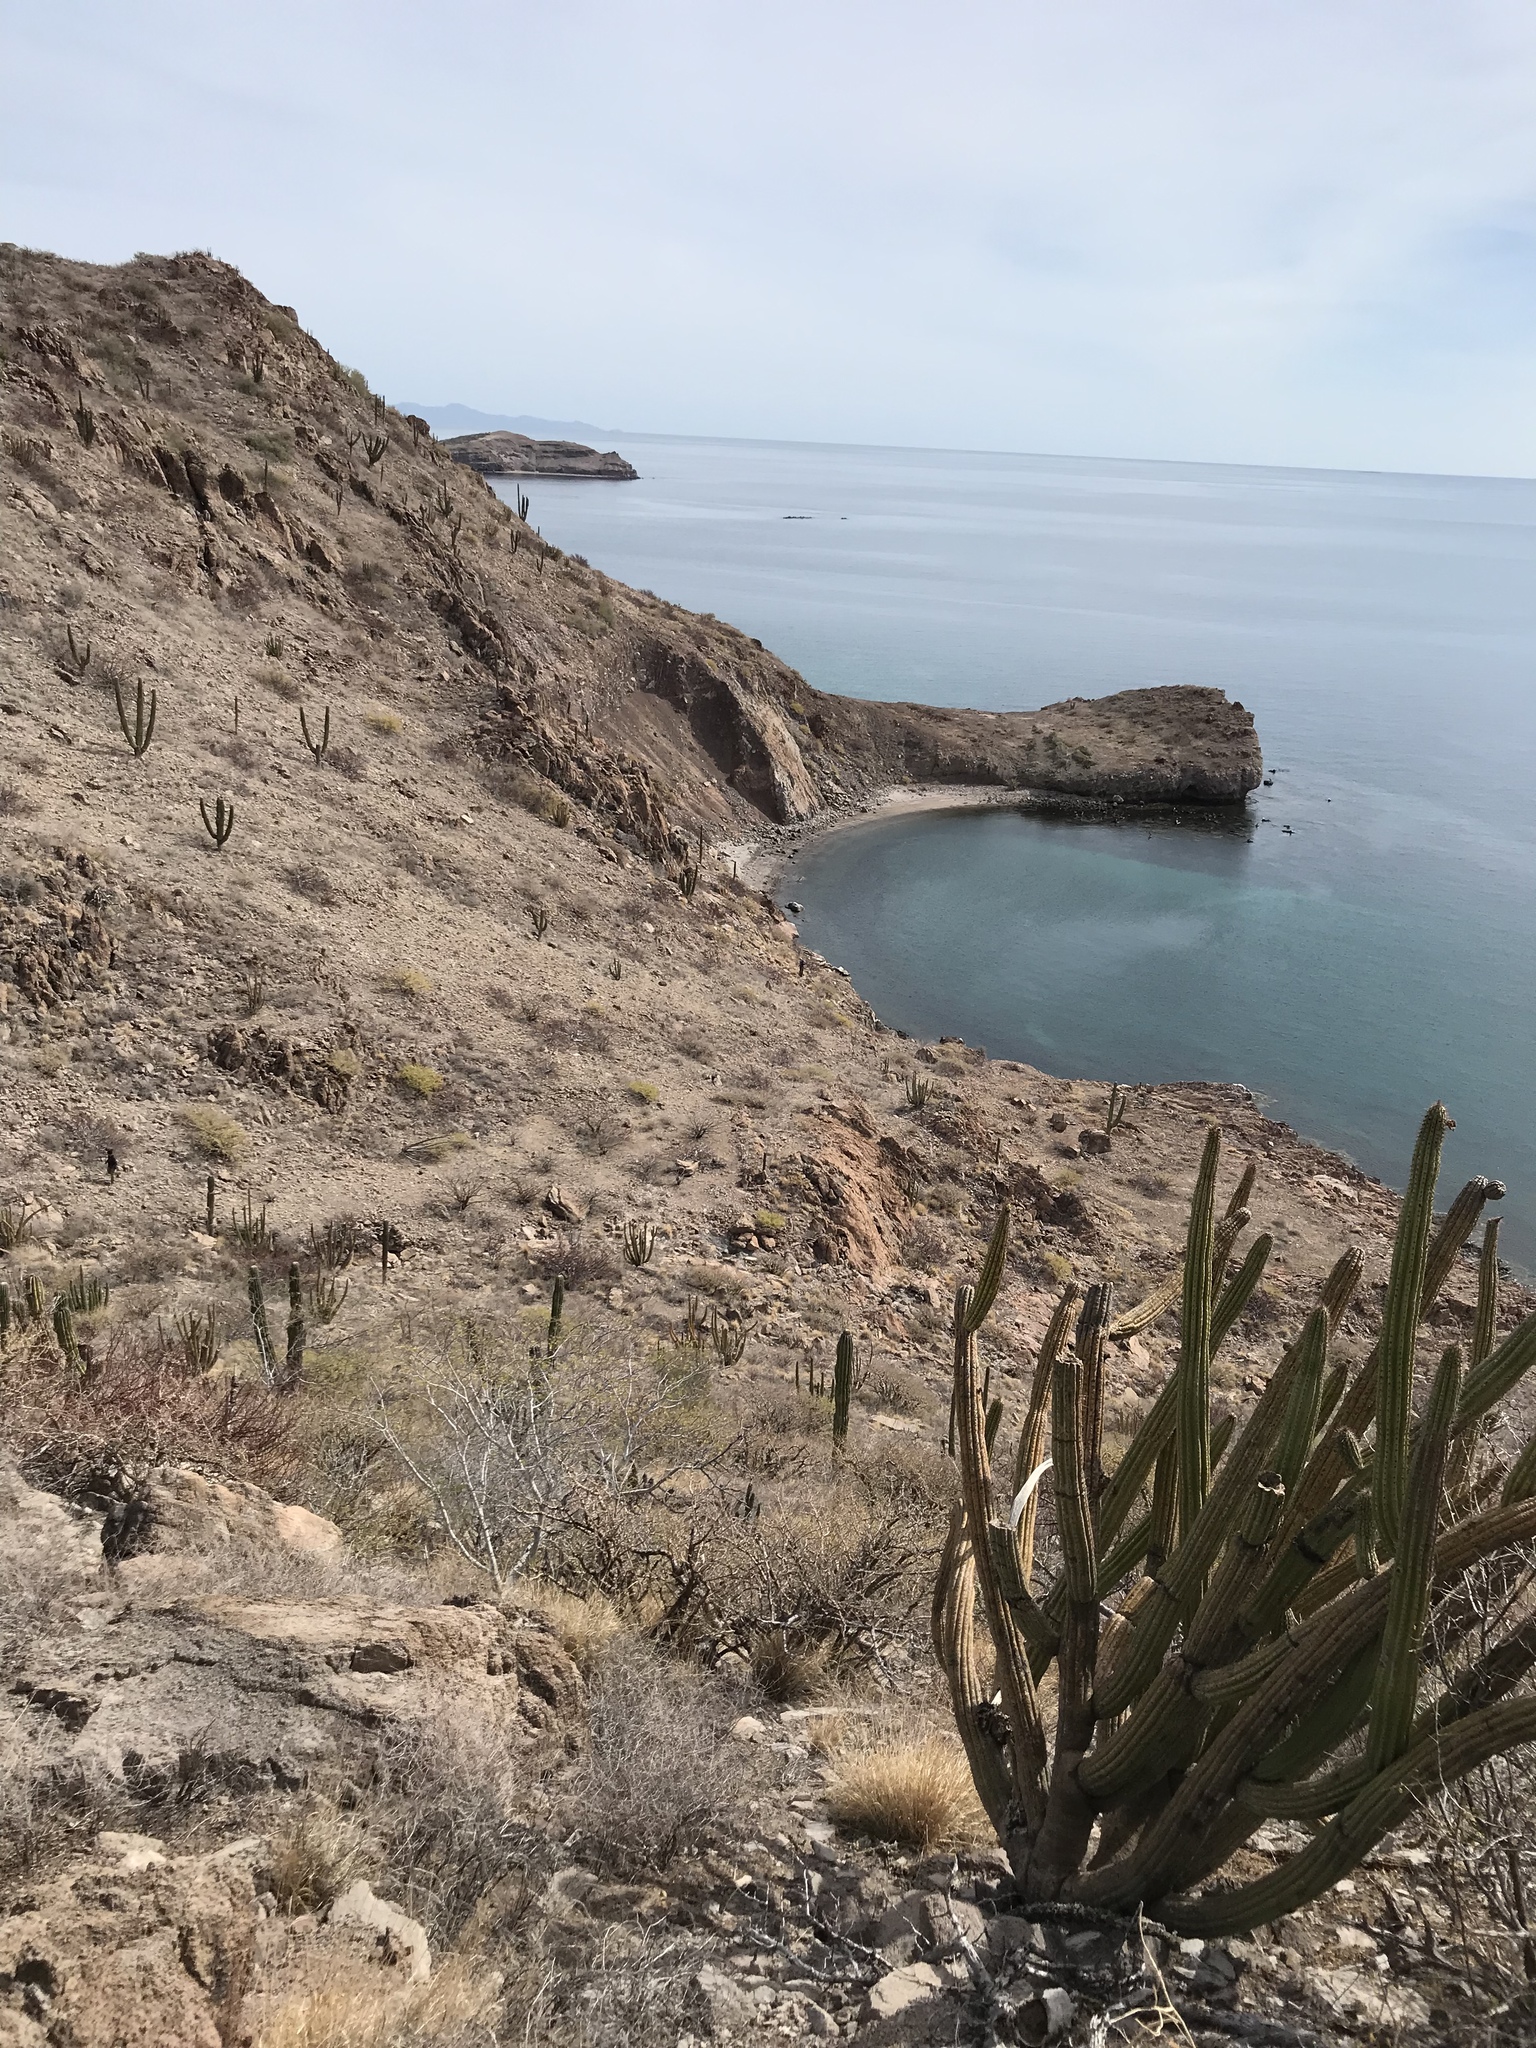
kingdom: Plantae
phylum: Tracheophyta
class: Magnoliopsida
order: Caryophyllales
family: Cactaceae
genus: Stenocereus
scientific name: Stenocereus thurberi
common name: Organ pipe cactus
